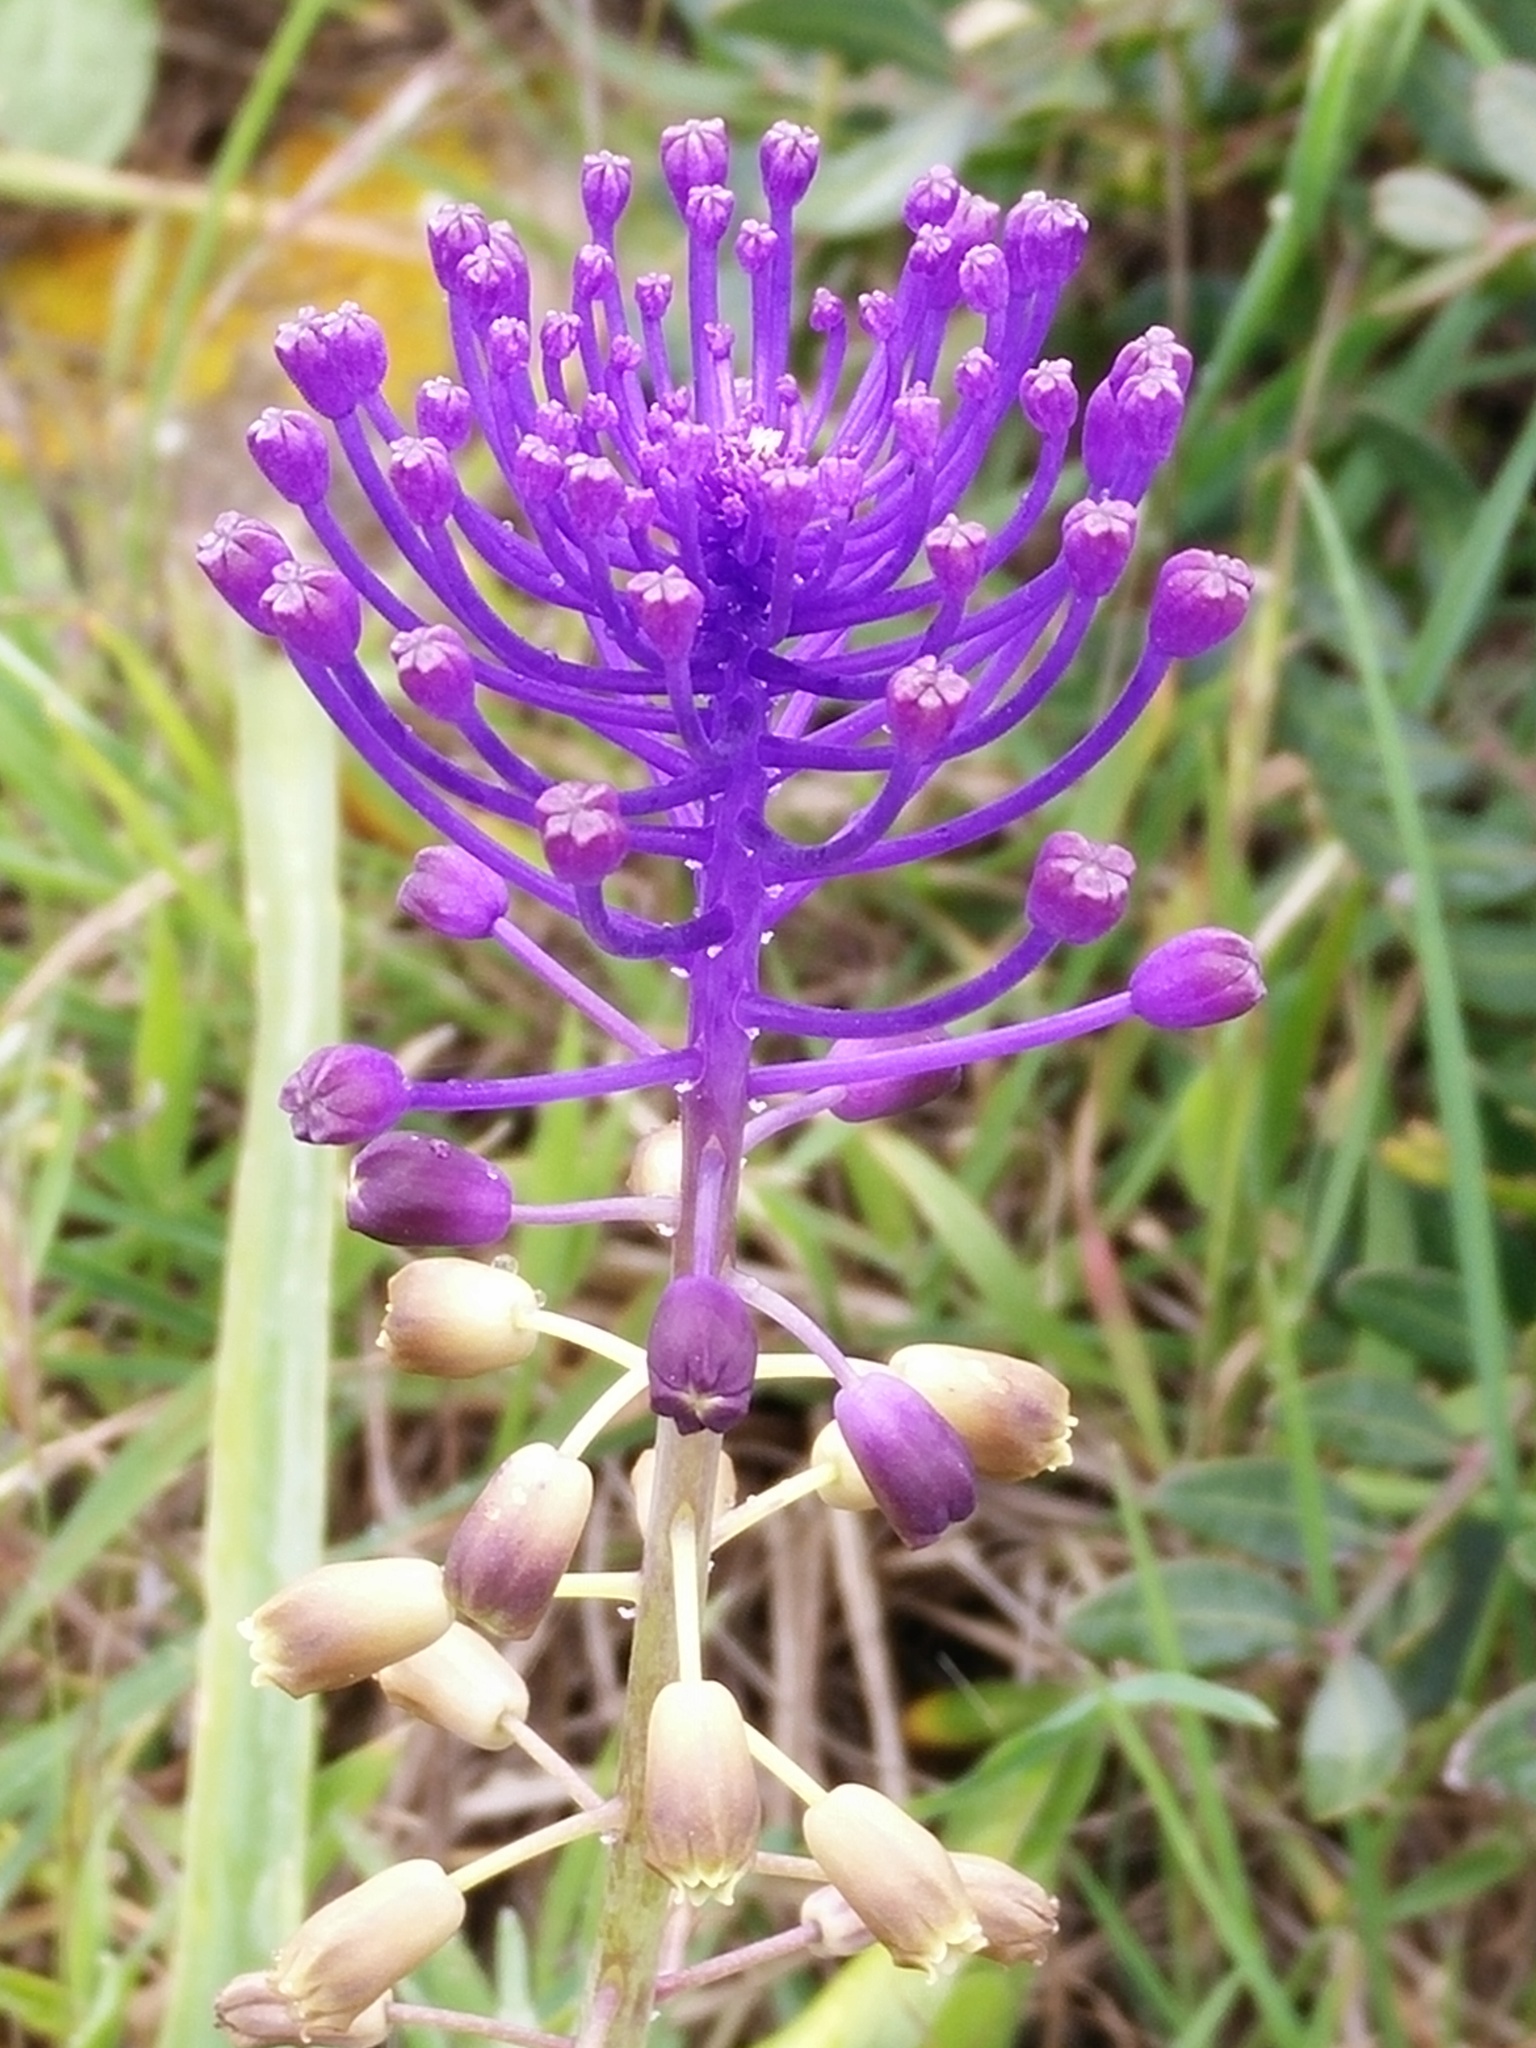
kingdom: Plantae
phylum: Tracheophyta
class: Liliopsida
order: Asparagales
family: Asparagaceae
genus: Muscari
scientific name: Muscari comosum
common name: Tassel hyacinth
